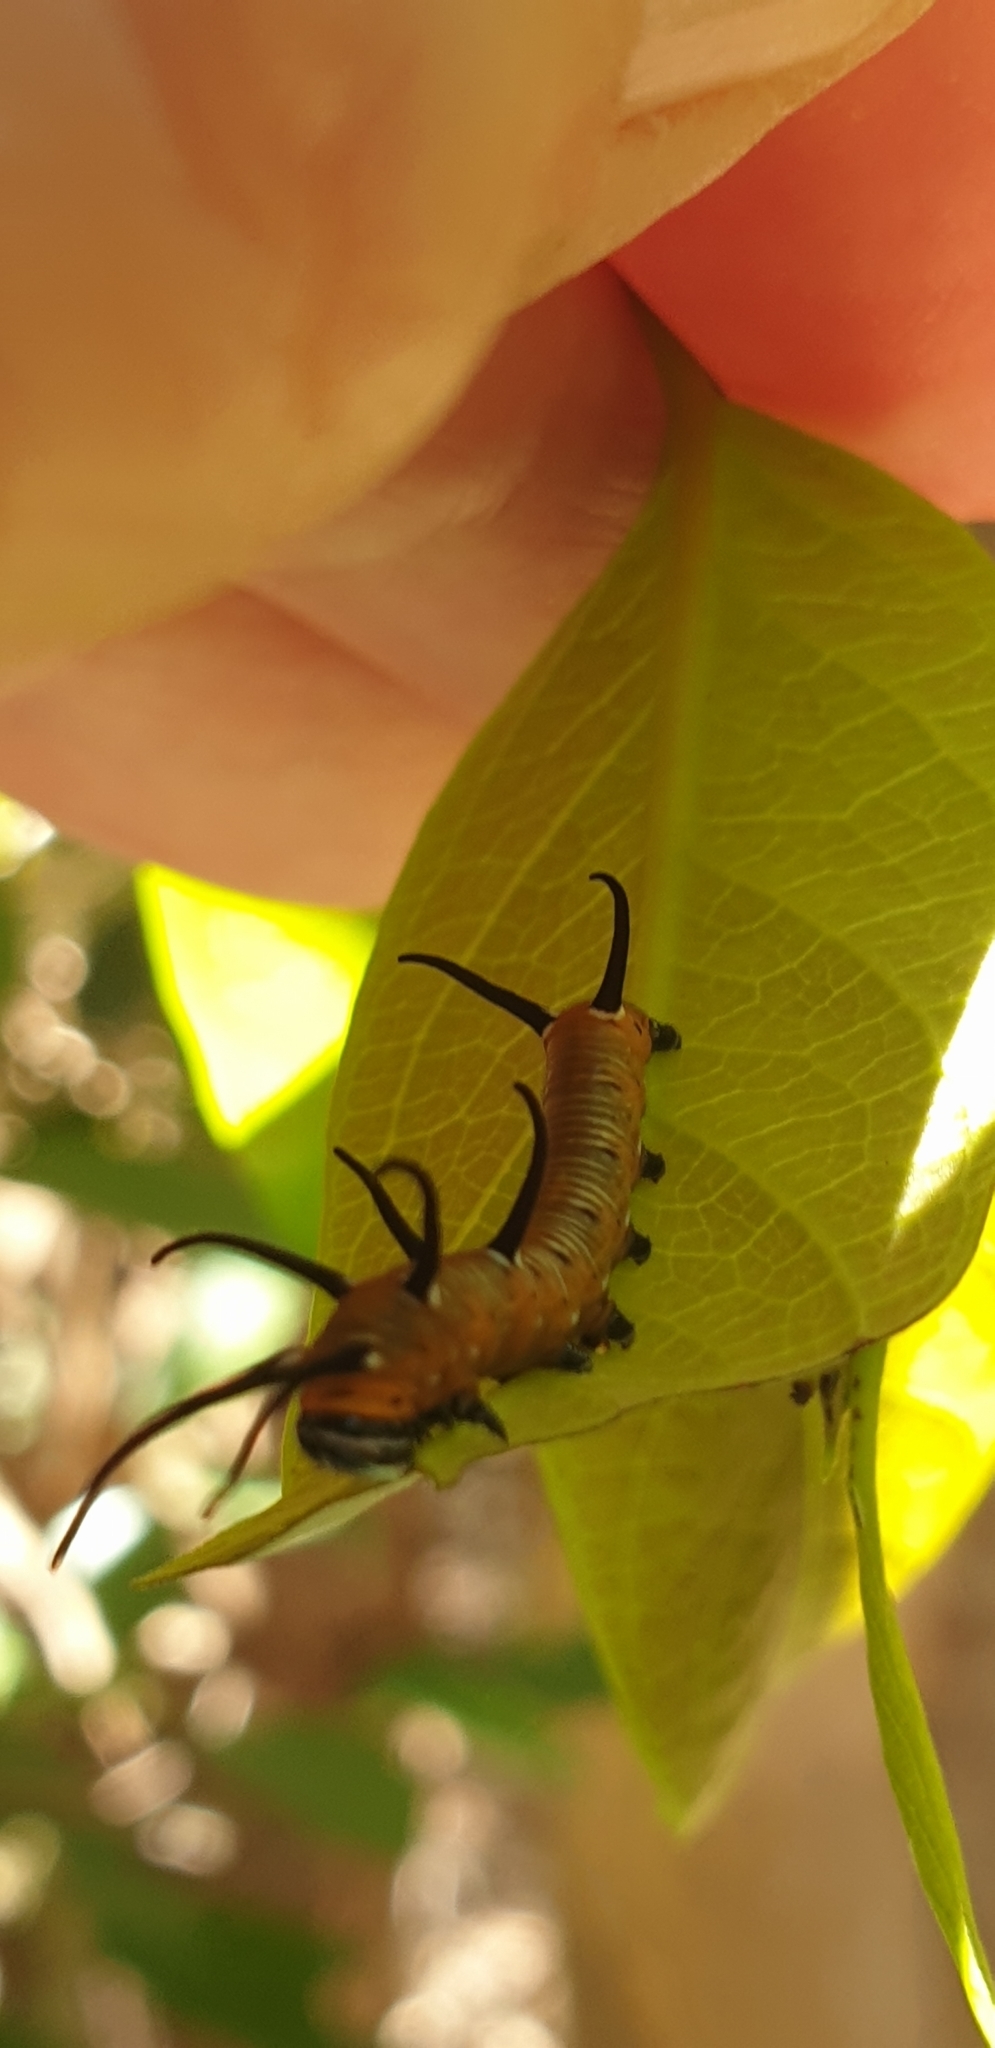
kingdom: Animalia
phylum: Arthropoda
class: Insecta
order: Lepidoptera
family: Nymphalidae
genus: Euploea
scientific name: Euploea core
